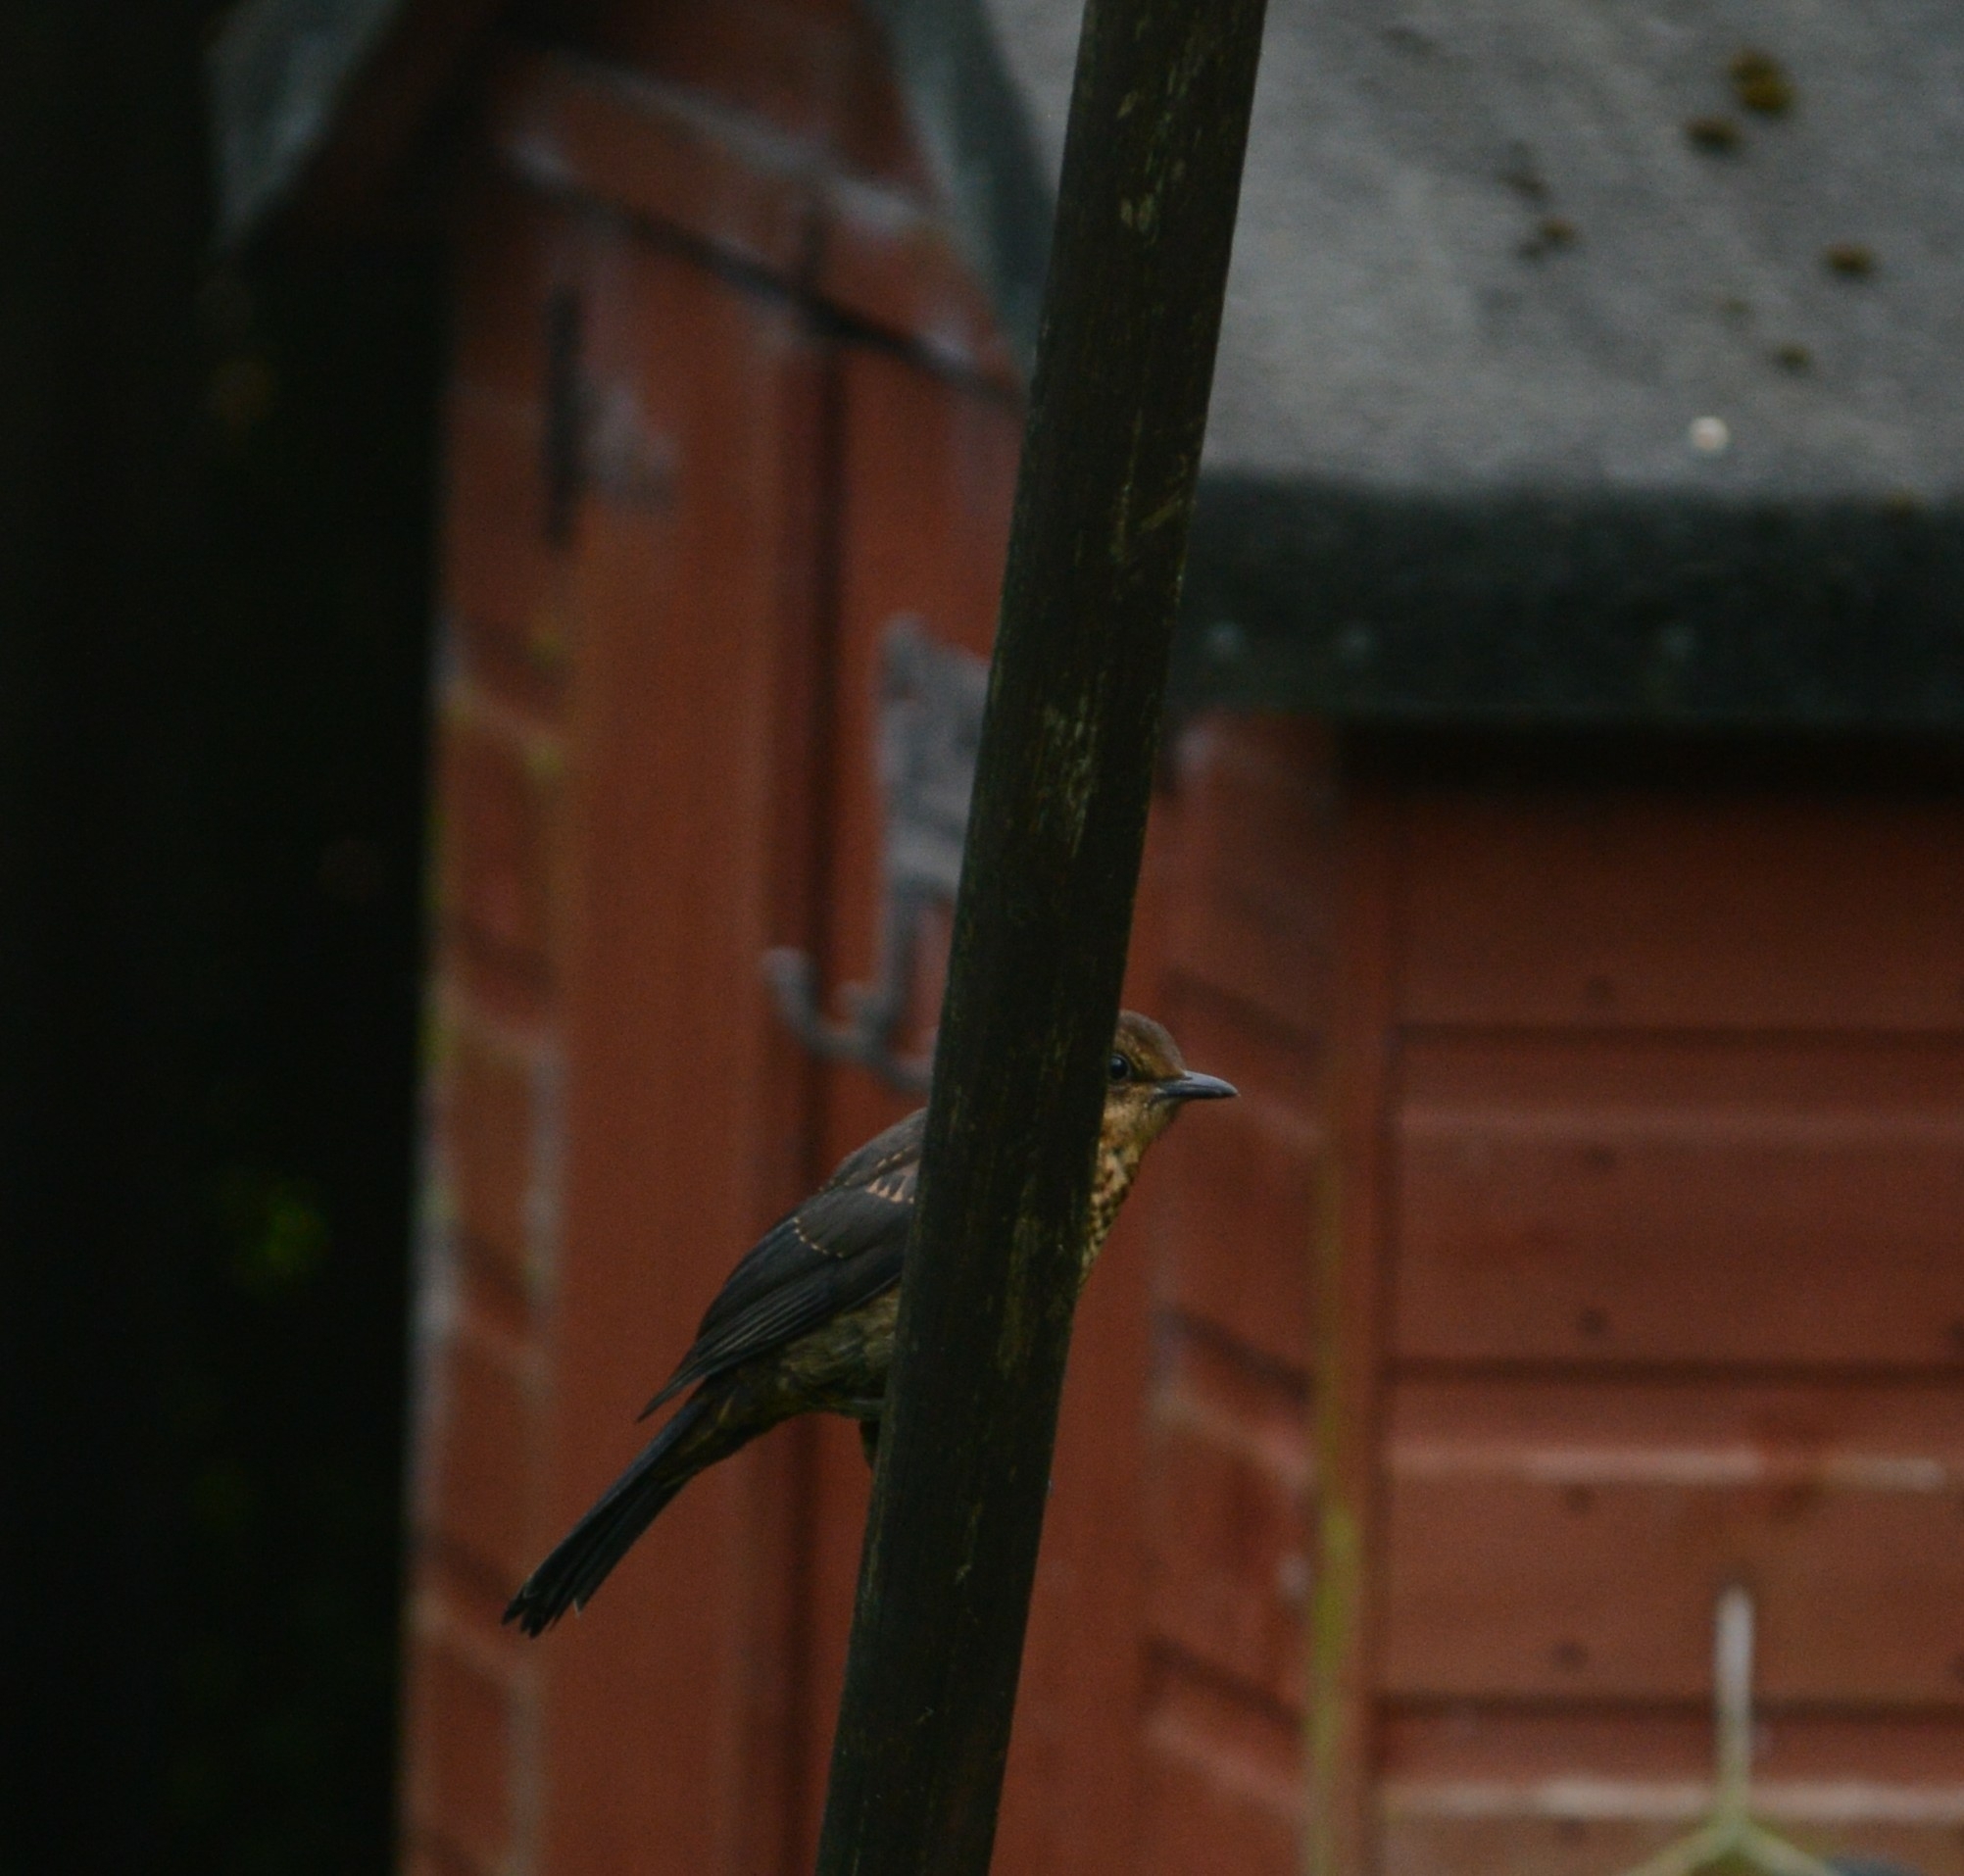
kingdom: Animalia
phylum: Chordata
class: Aves
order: Passeriformes
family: Turdidae
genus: Turdus
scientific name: Turdus merula
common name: Common blackbird
